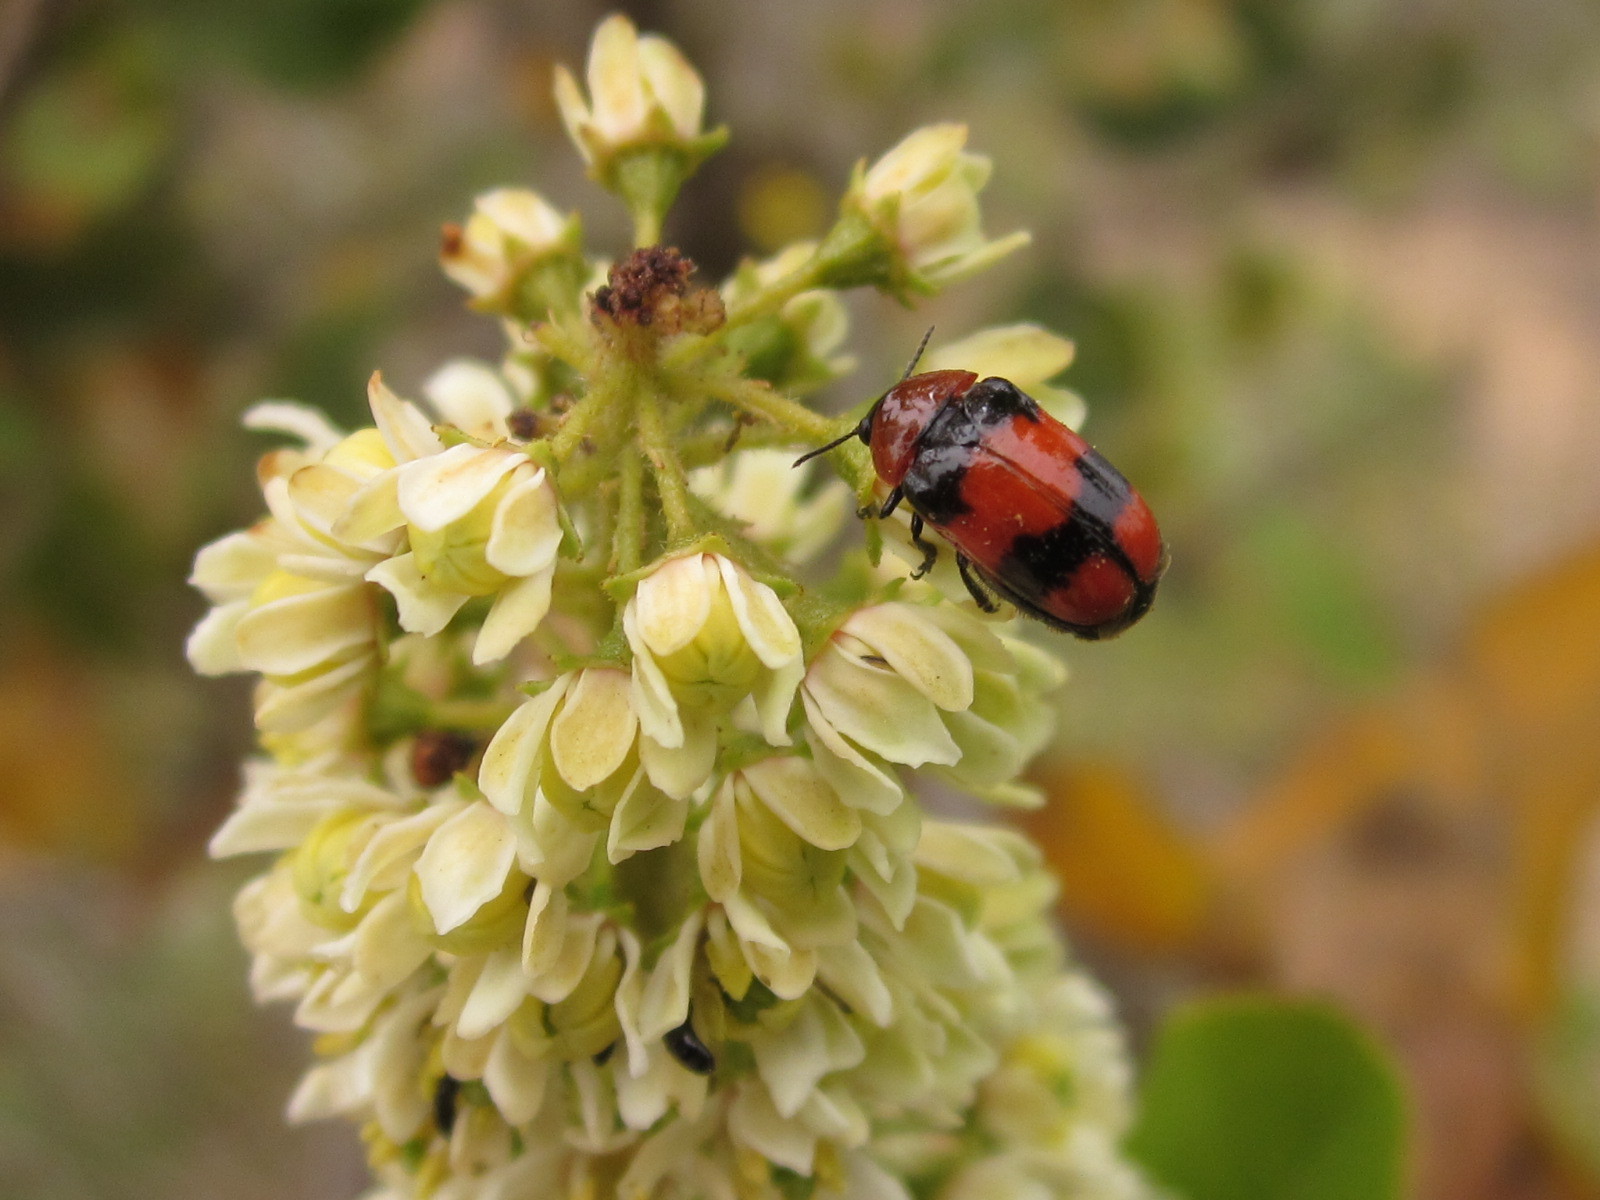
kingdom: Animalia
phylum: Arthropoda
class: Insecta
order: Coleoptera
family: Chrysomelidae
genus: Dachrys
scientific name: Dachrys
